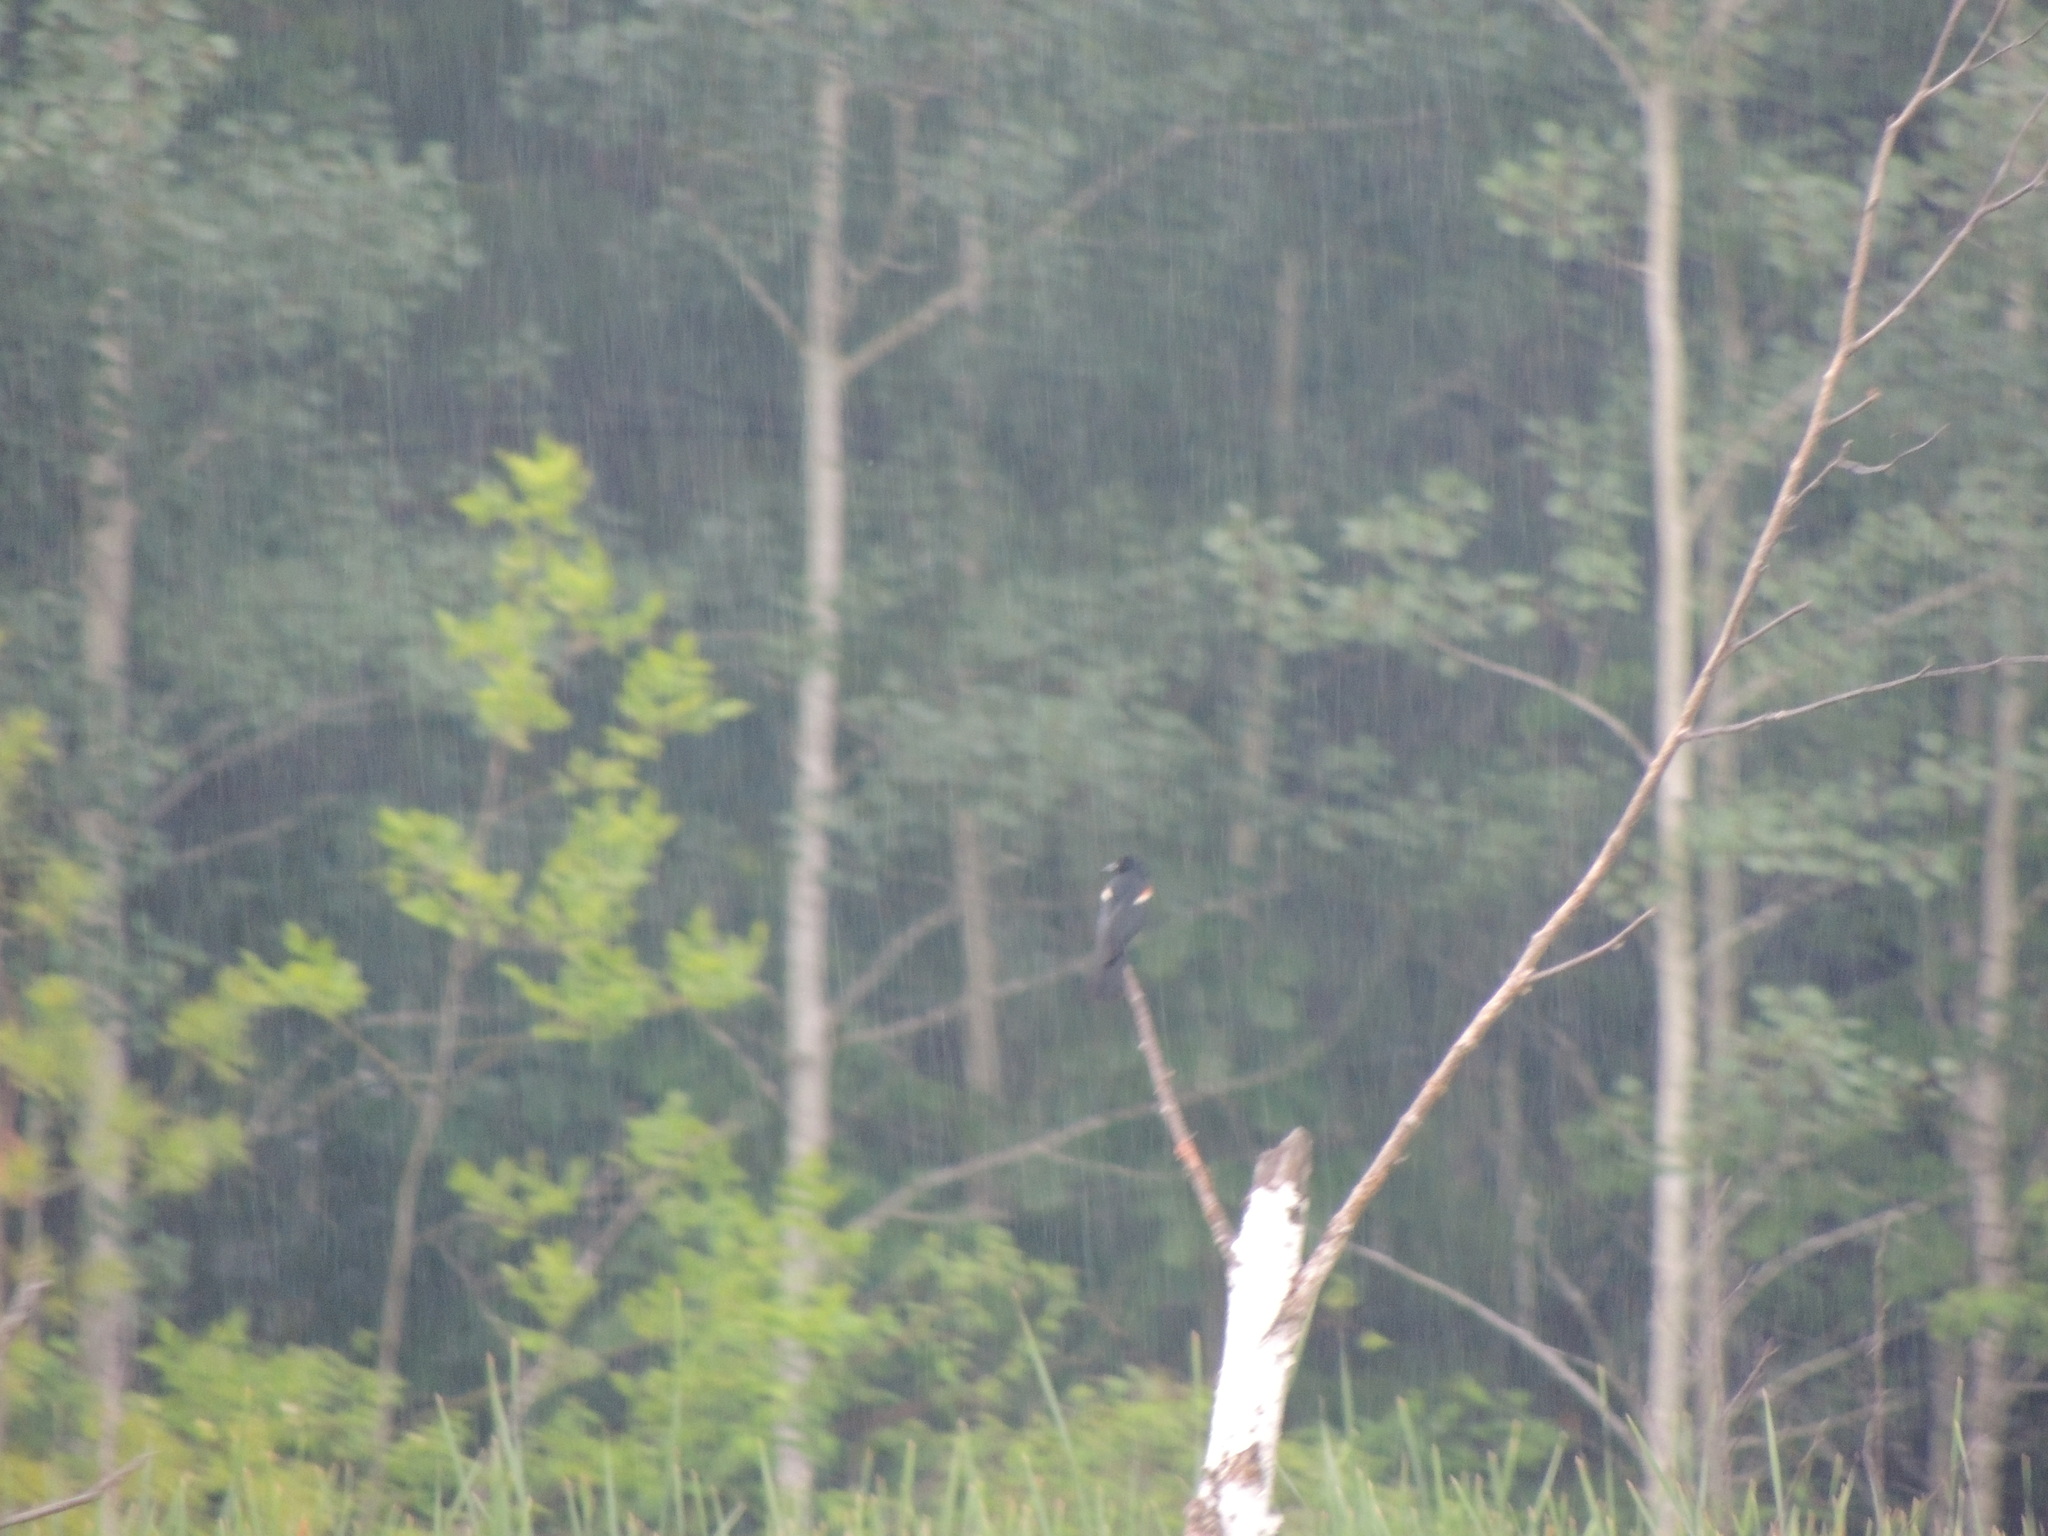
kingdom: Animalia
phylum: Chordata
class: Aves
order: Passeriformes
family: Icteridae
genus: Agelaius
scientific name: Agelaius phoeniceus
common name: Red-winged blackbird
